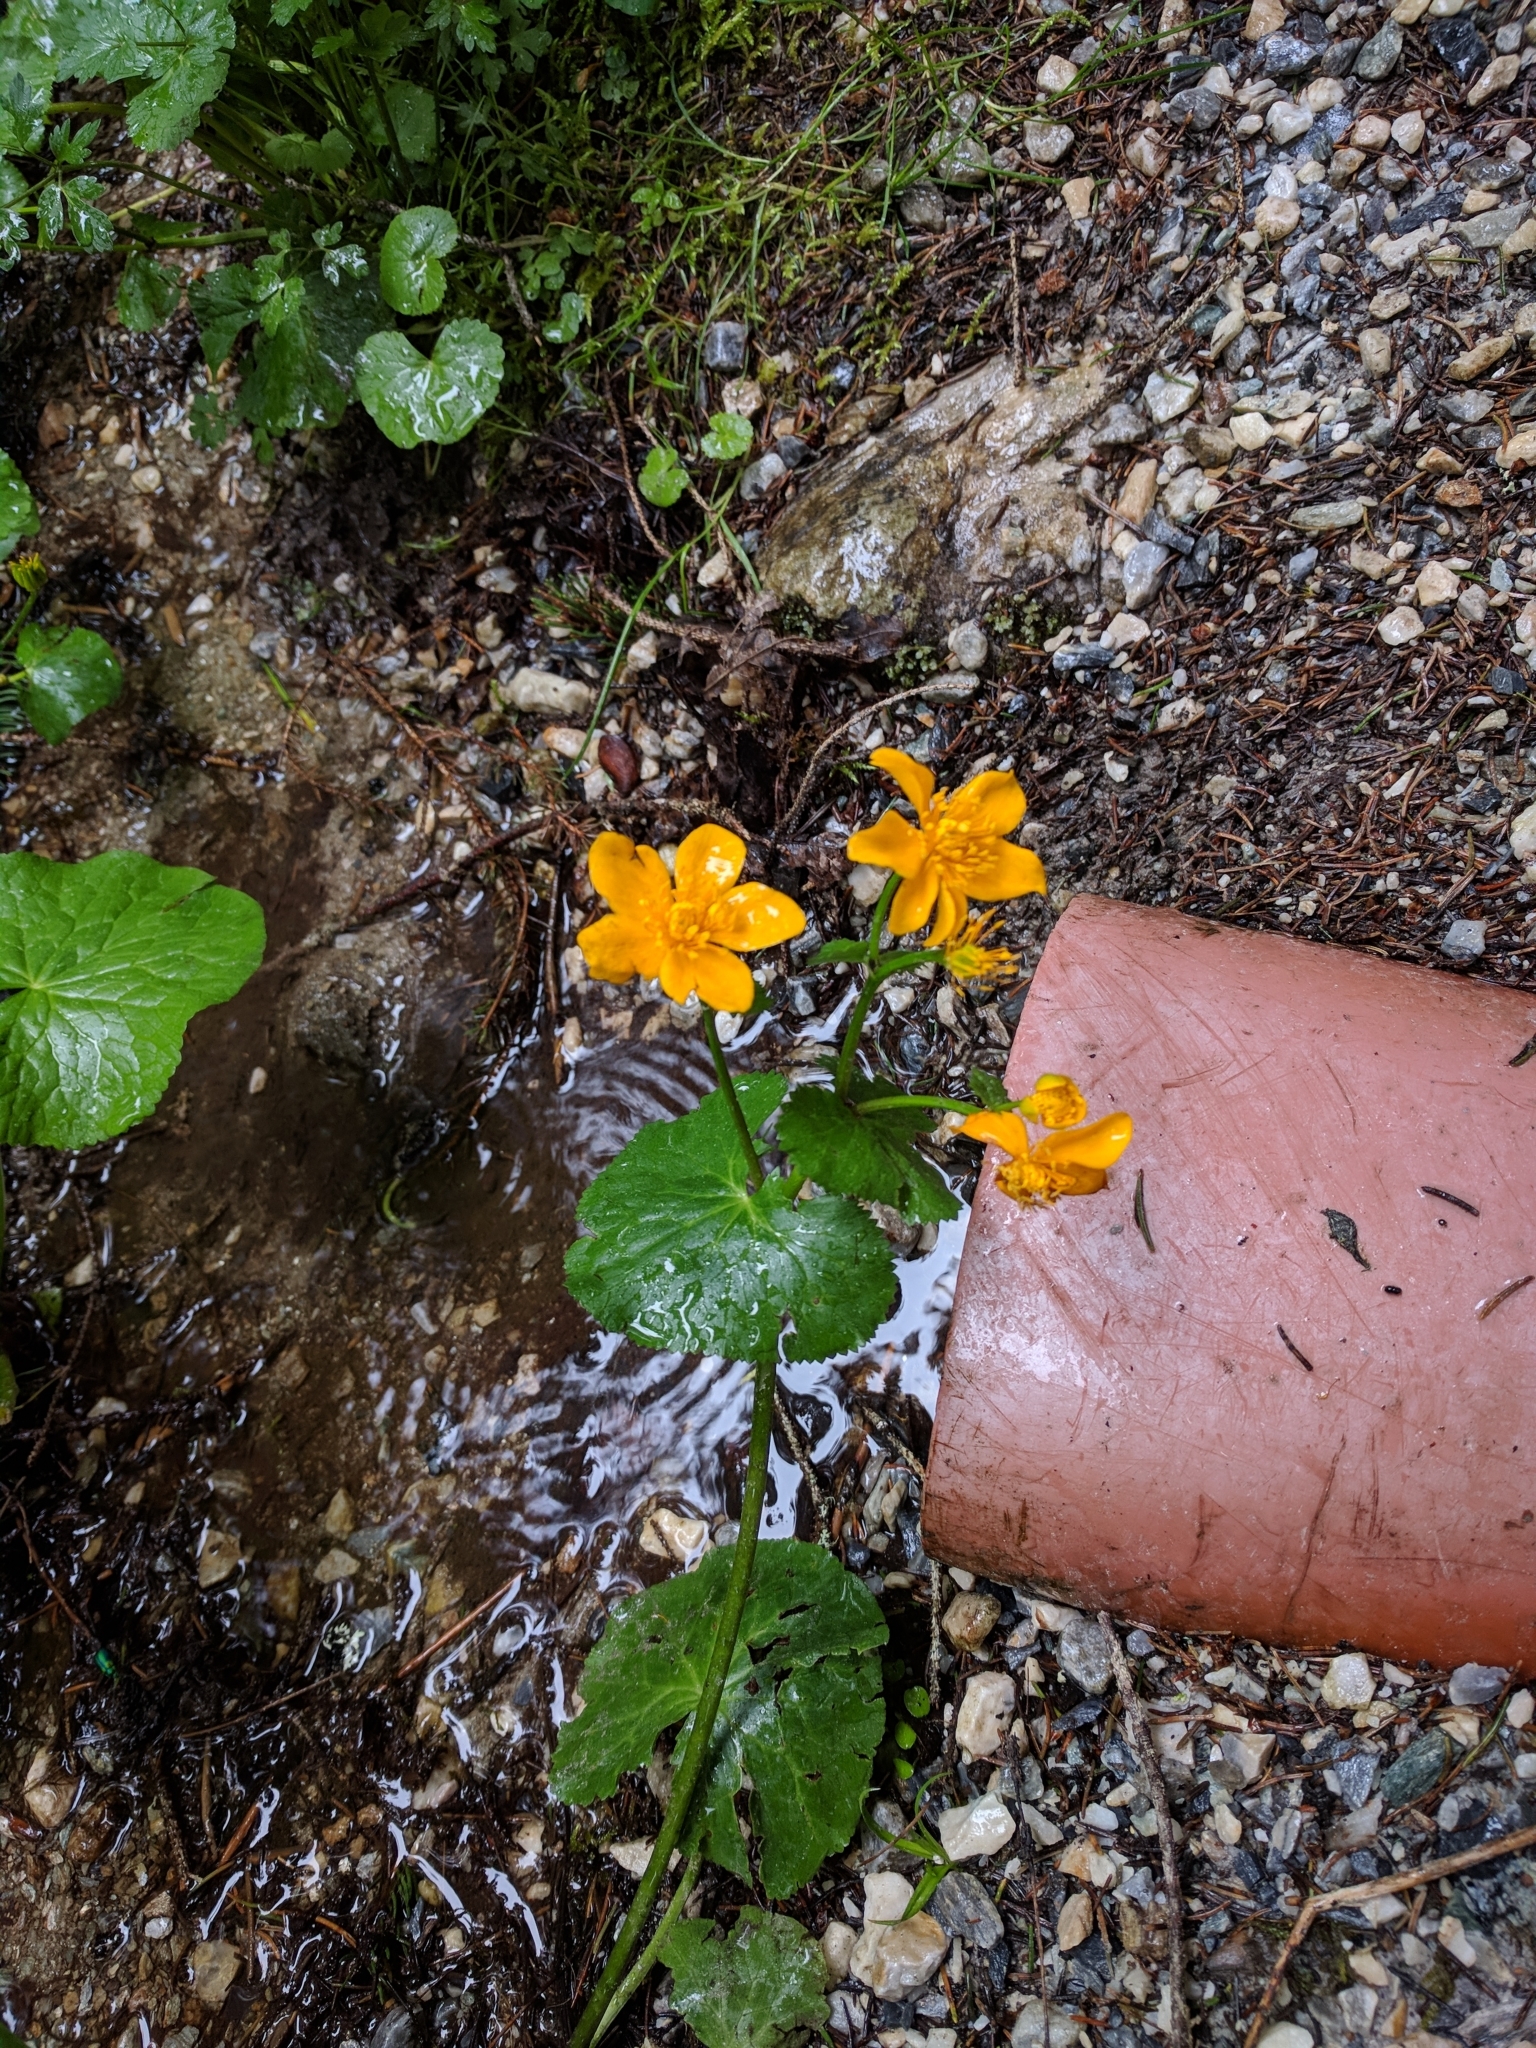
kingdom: Plantae
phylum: Tracheophyta
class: Magnoliopsida
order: Ranunculales
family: Ranunculaceae
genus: Caltha
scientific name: Caltha palustris
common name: Marsh marigold
